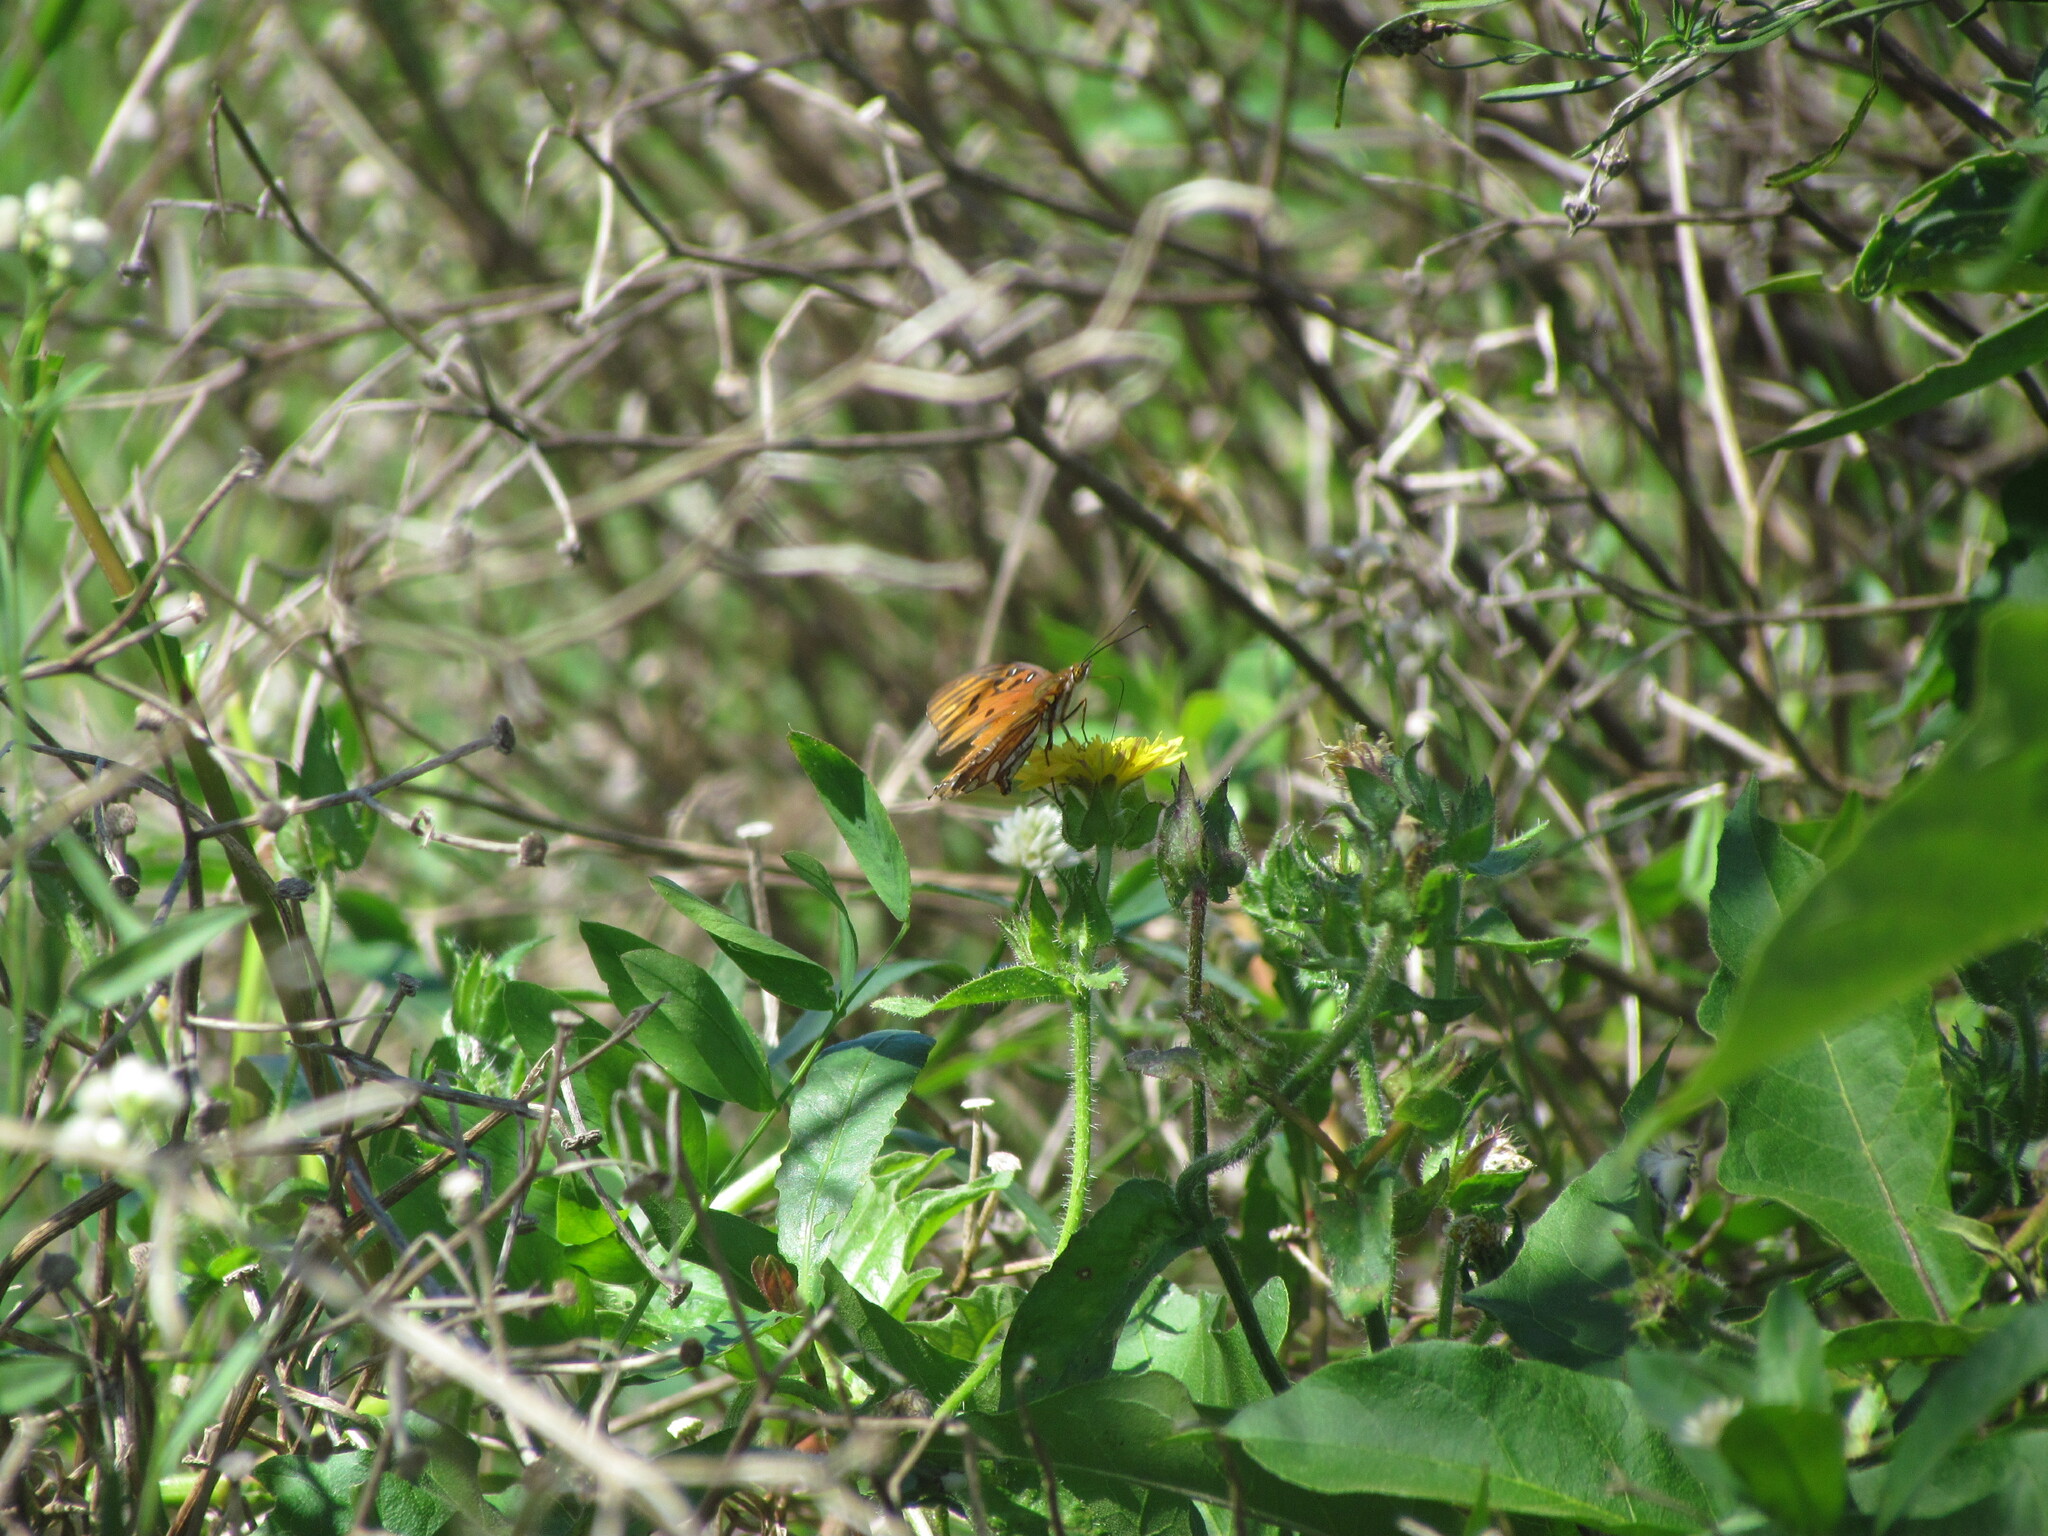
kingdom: Animalia
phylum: Arthropoda
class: Insecta
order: Lepidoptera
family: Nymphalidae
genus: Dione
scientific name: Dione vanillae
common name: Gulf fritillary
